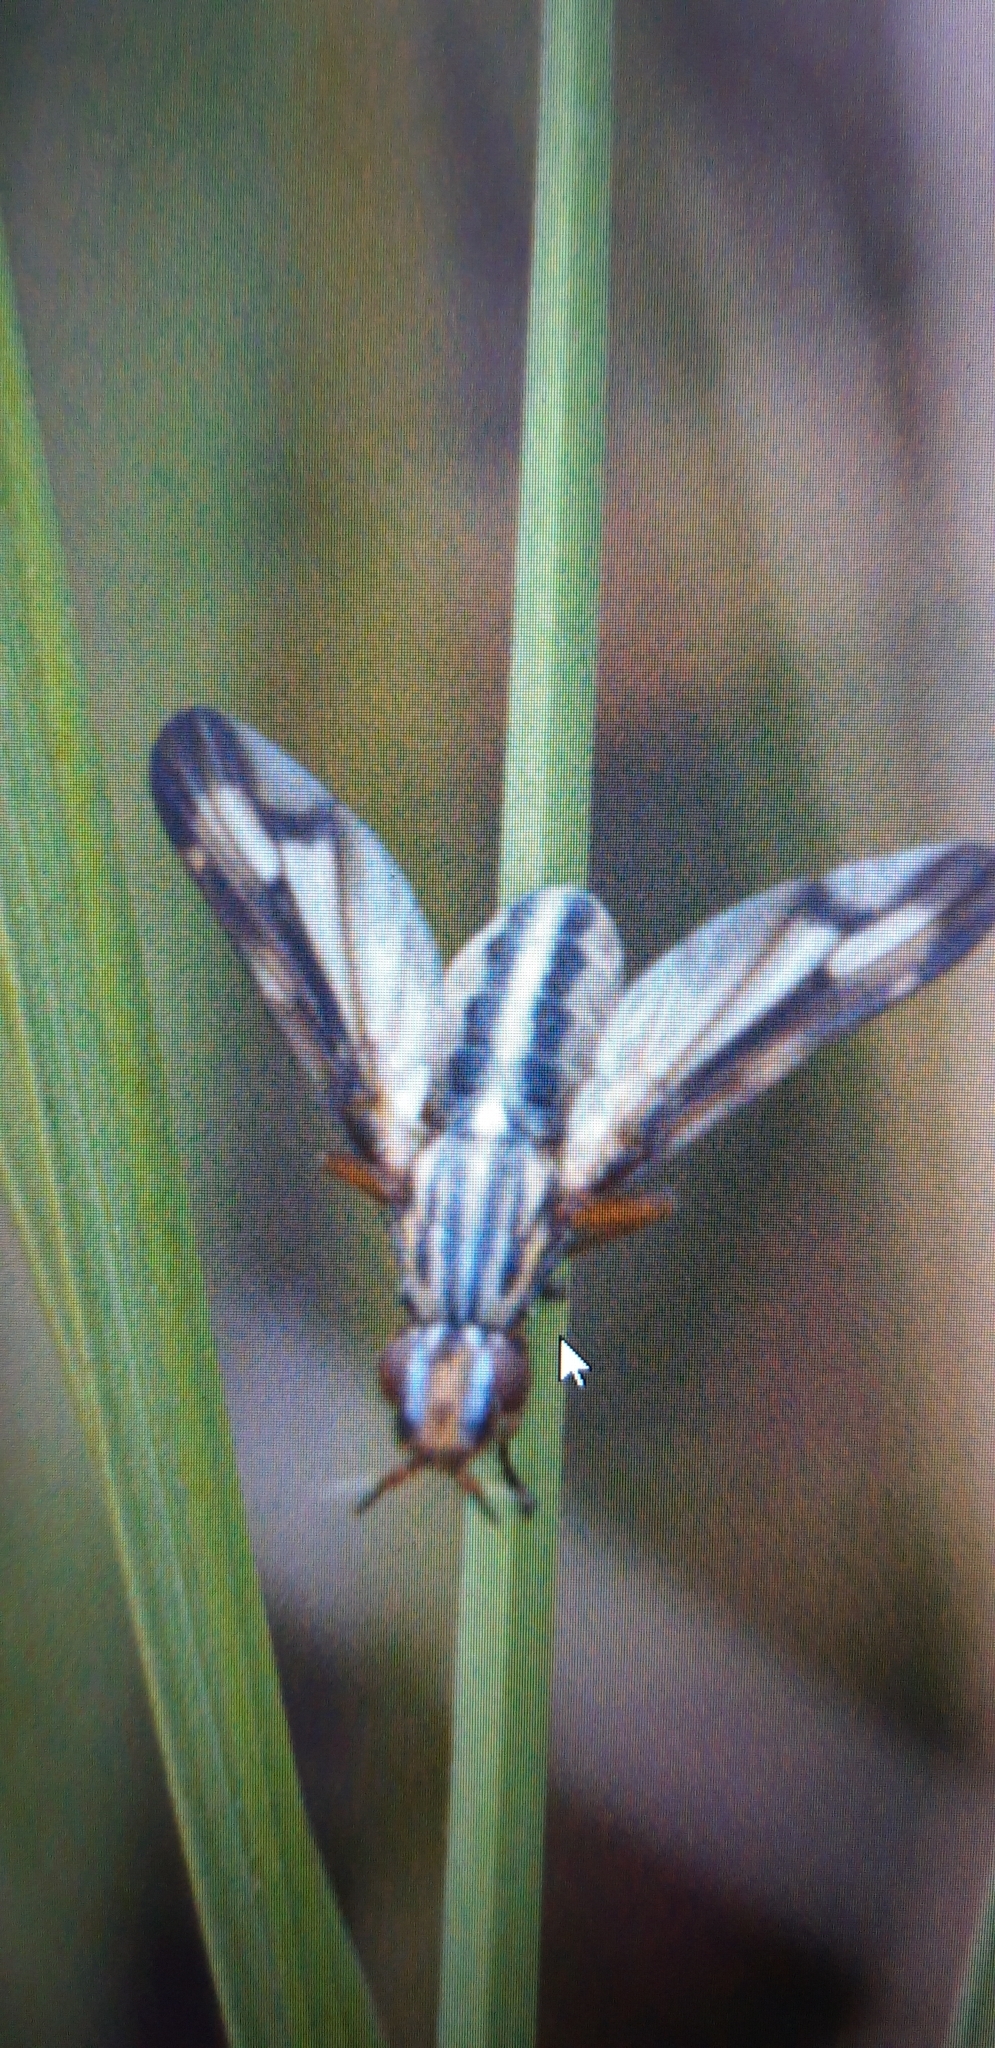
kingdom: Animalia
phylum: Arthropoda
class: Insecta
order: Diptera
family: Ulidiidae
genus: Dorycera
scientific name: Dorycera grandis
